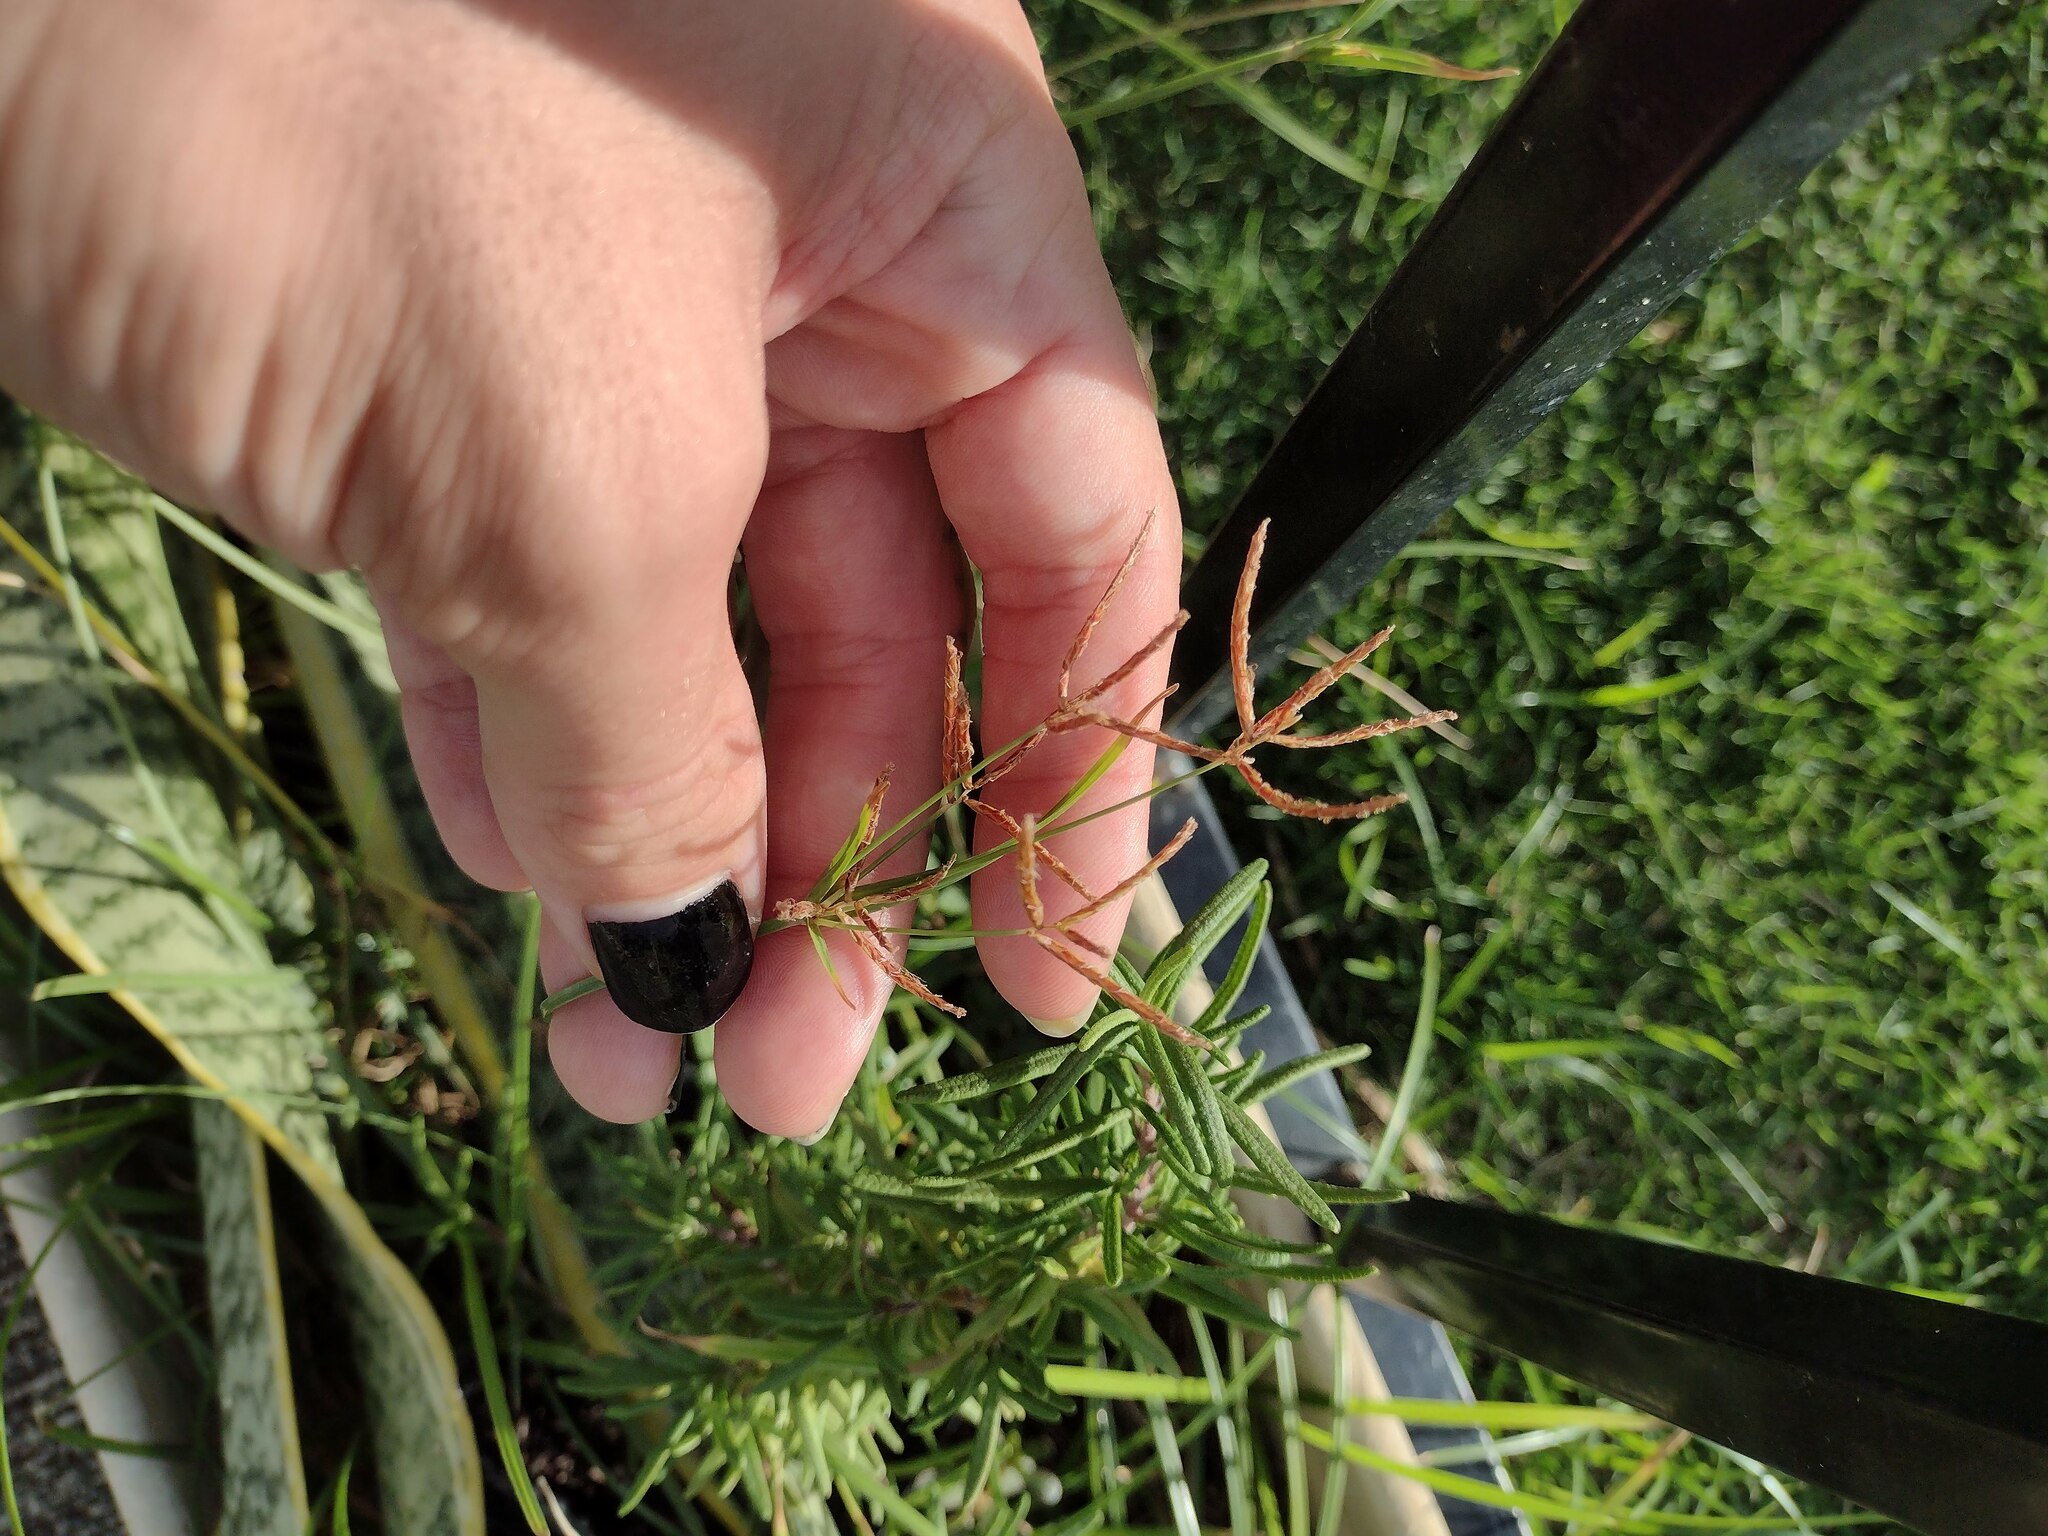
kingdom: Plantae
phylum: Tracheophyta
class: Liliopsida
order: Poales
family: Cyperaceae
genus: Cyperus
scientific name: Cyperus rotundus
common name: Nutgrass
